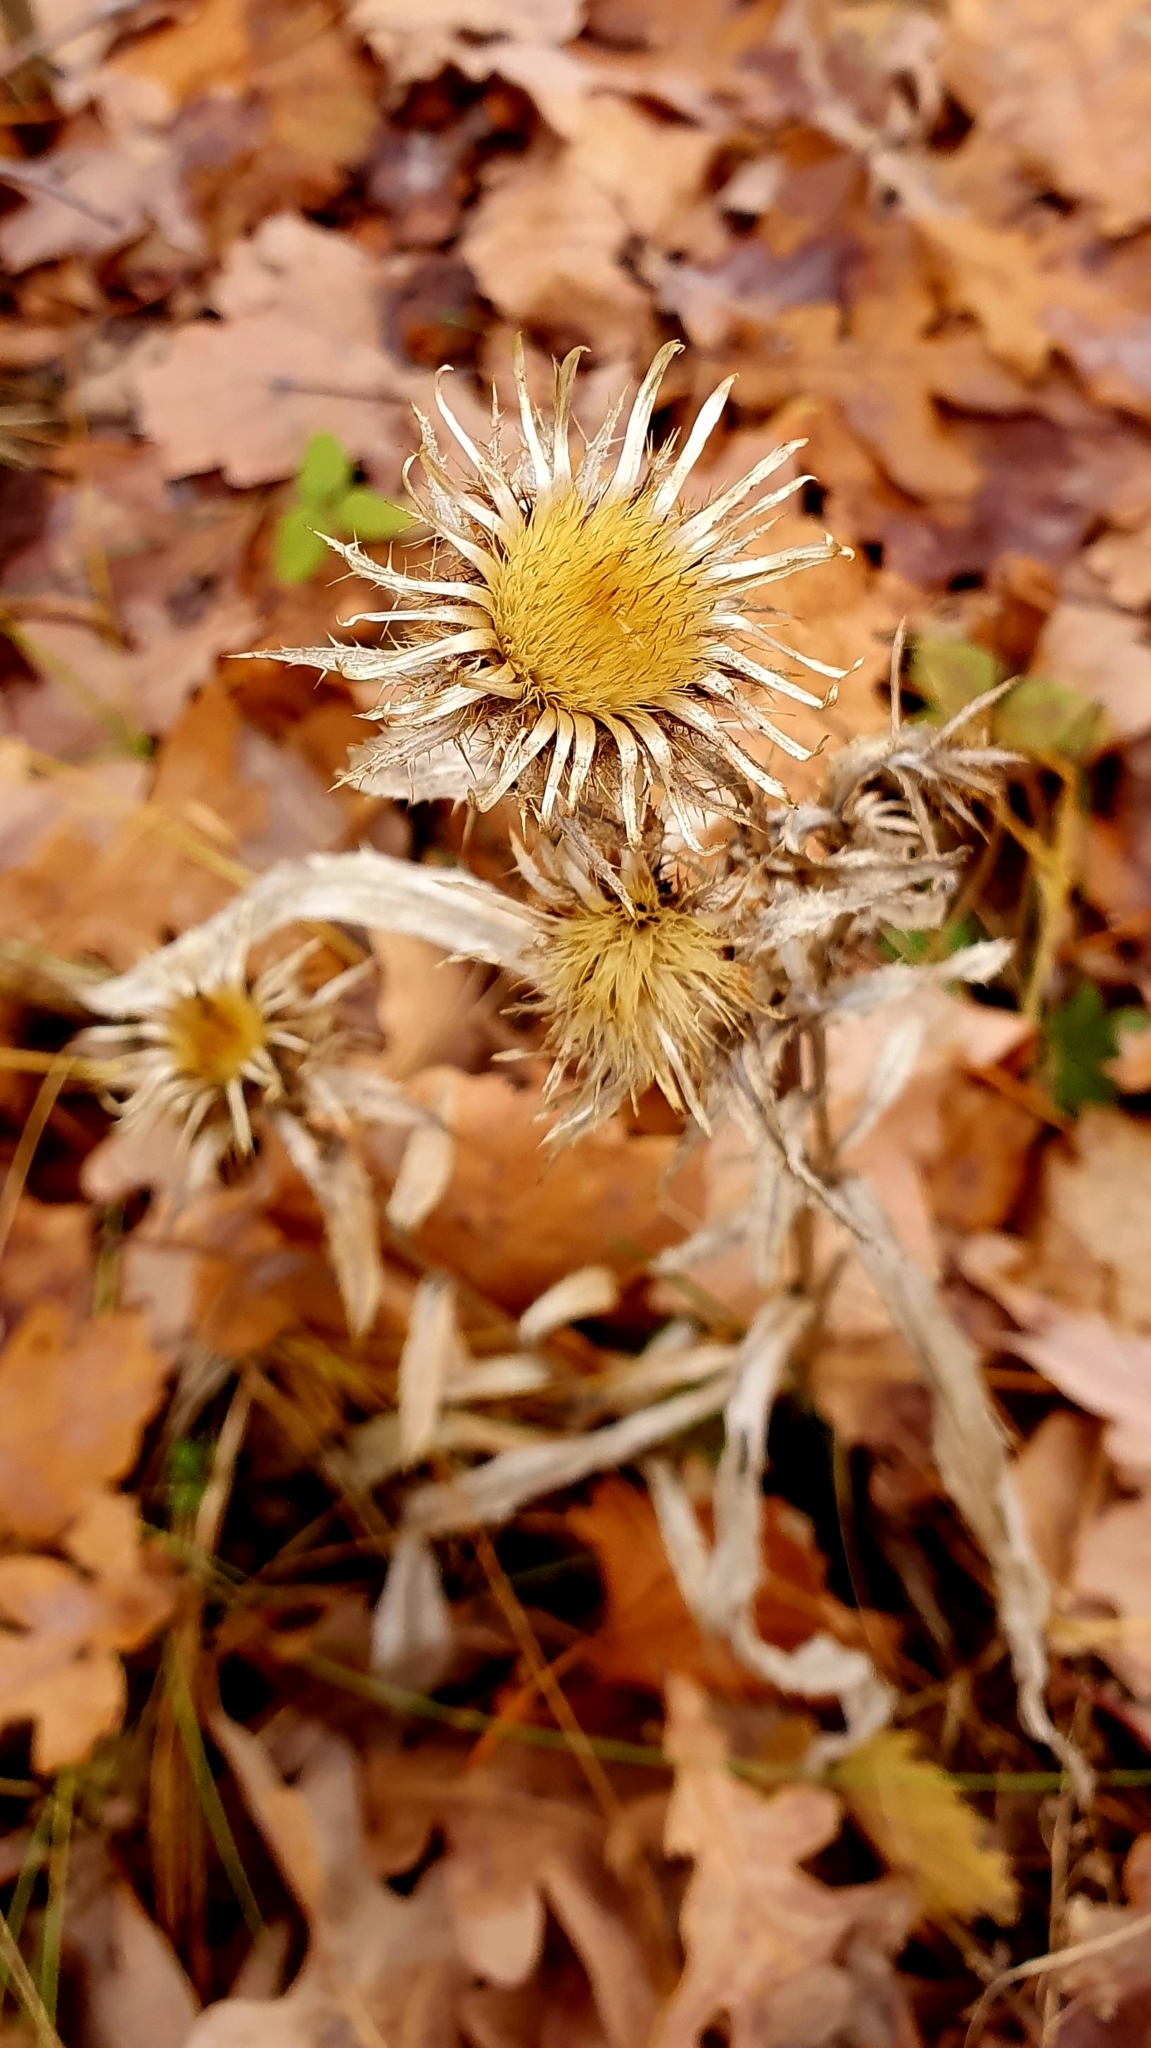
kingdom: Plantae
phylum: Tracheophyta
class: Magnoliopsida
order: Asterales
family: Asteraceae
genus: Carlina
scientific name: Carlina biebersteinii
